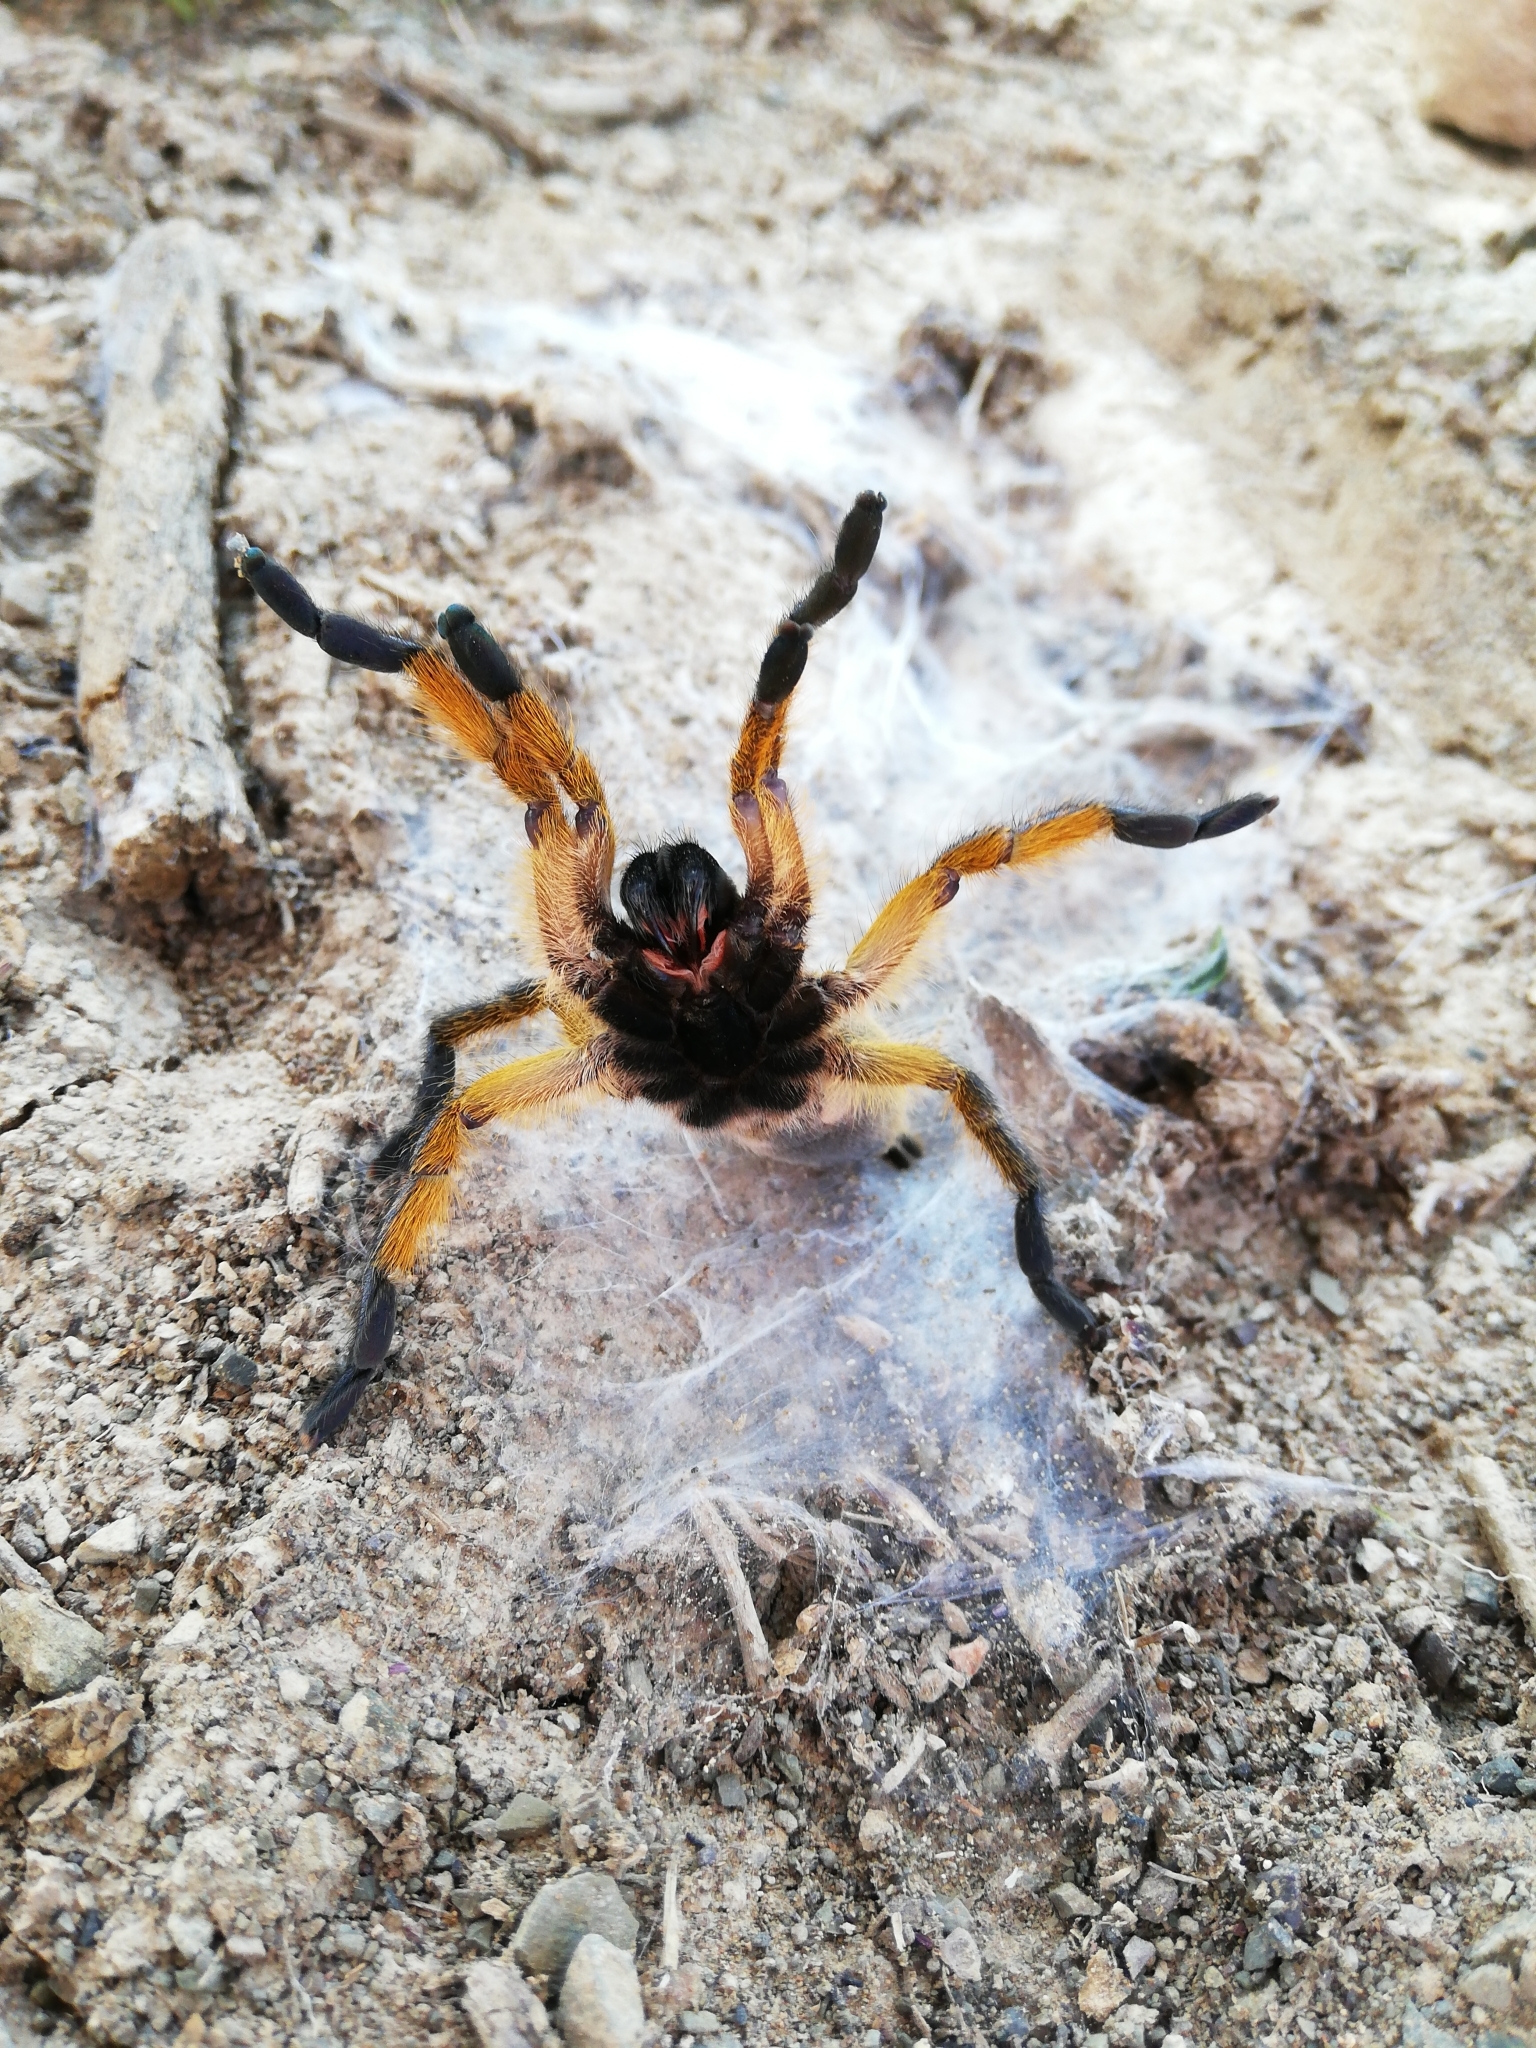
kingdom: Animalia
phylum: Arthropoda
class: Arachnida
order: Araneae
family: Theraphosidae
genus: Harpactira
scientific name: Harpactira pulchripes
